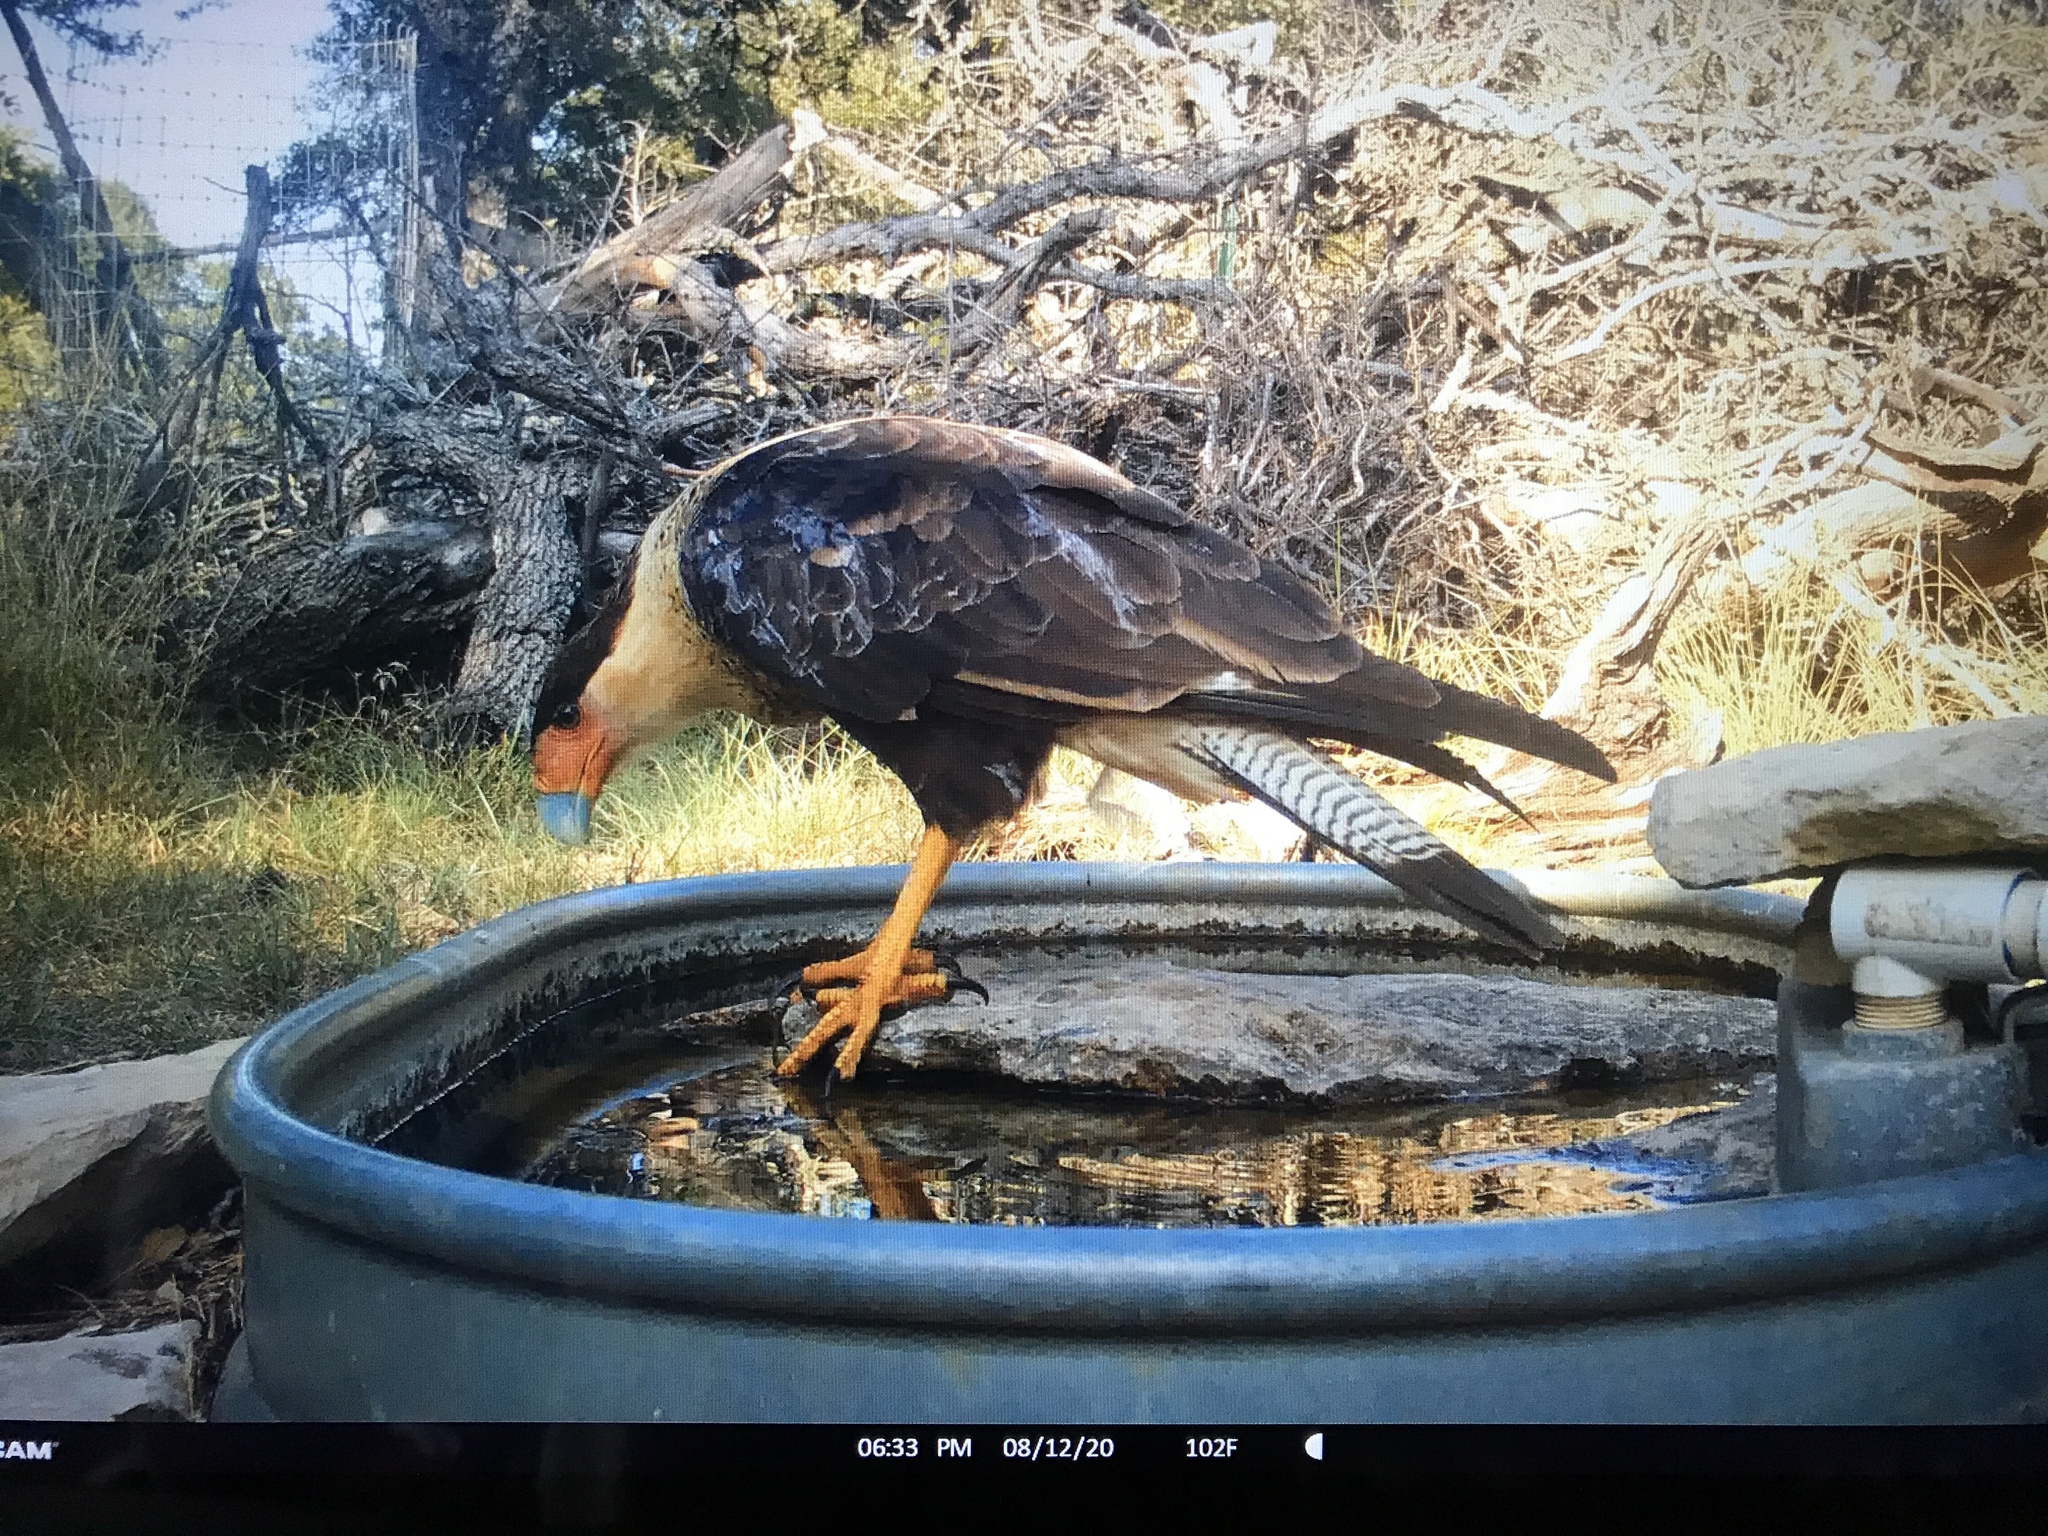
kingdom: Animalia
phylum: Chordata
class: Aves
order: Falconiformes
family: Falconidae
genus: Caracara
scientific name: Caracara plancus
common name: Southern caracara
